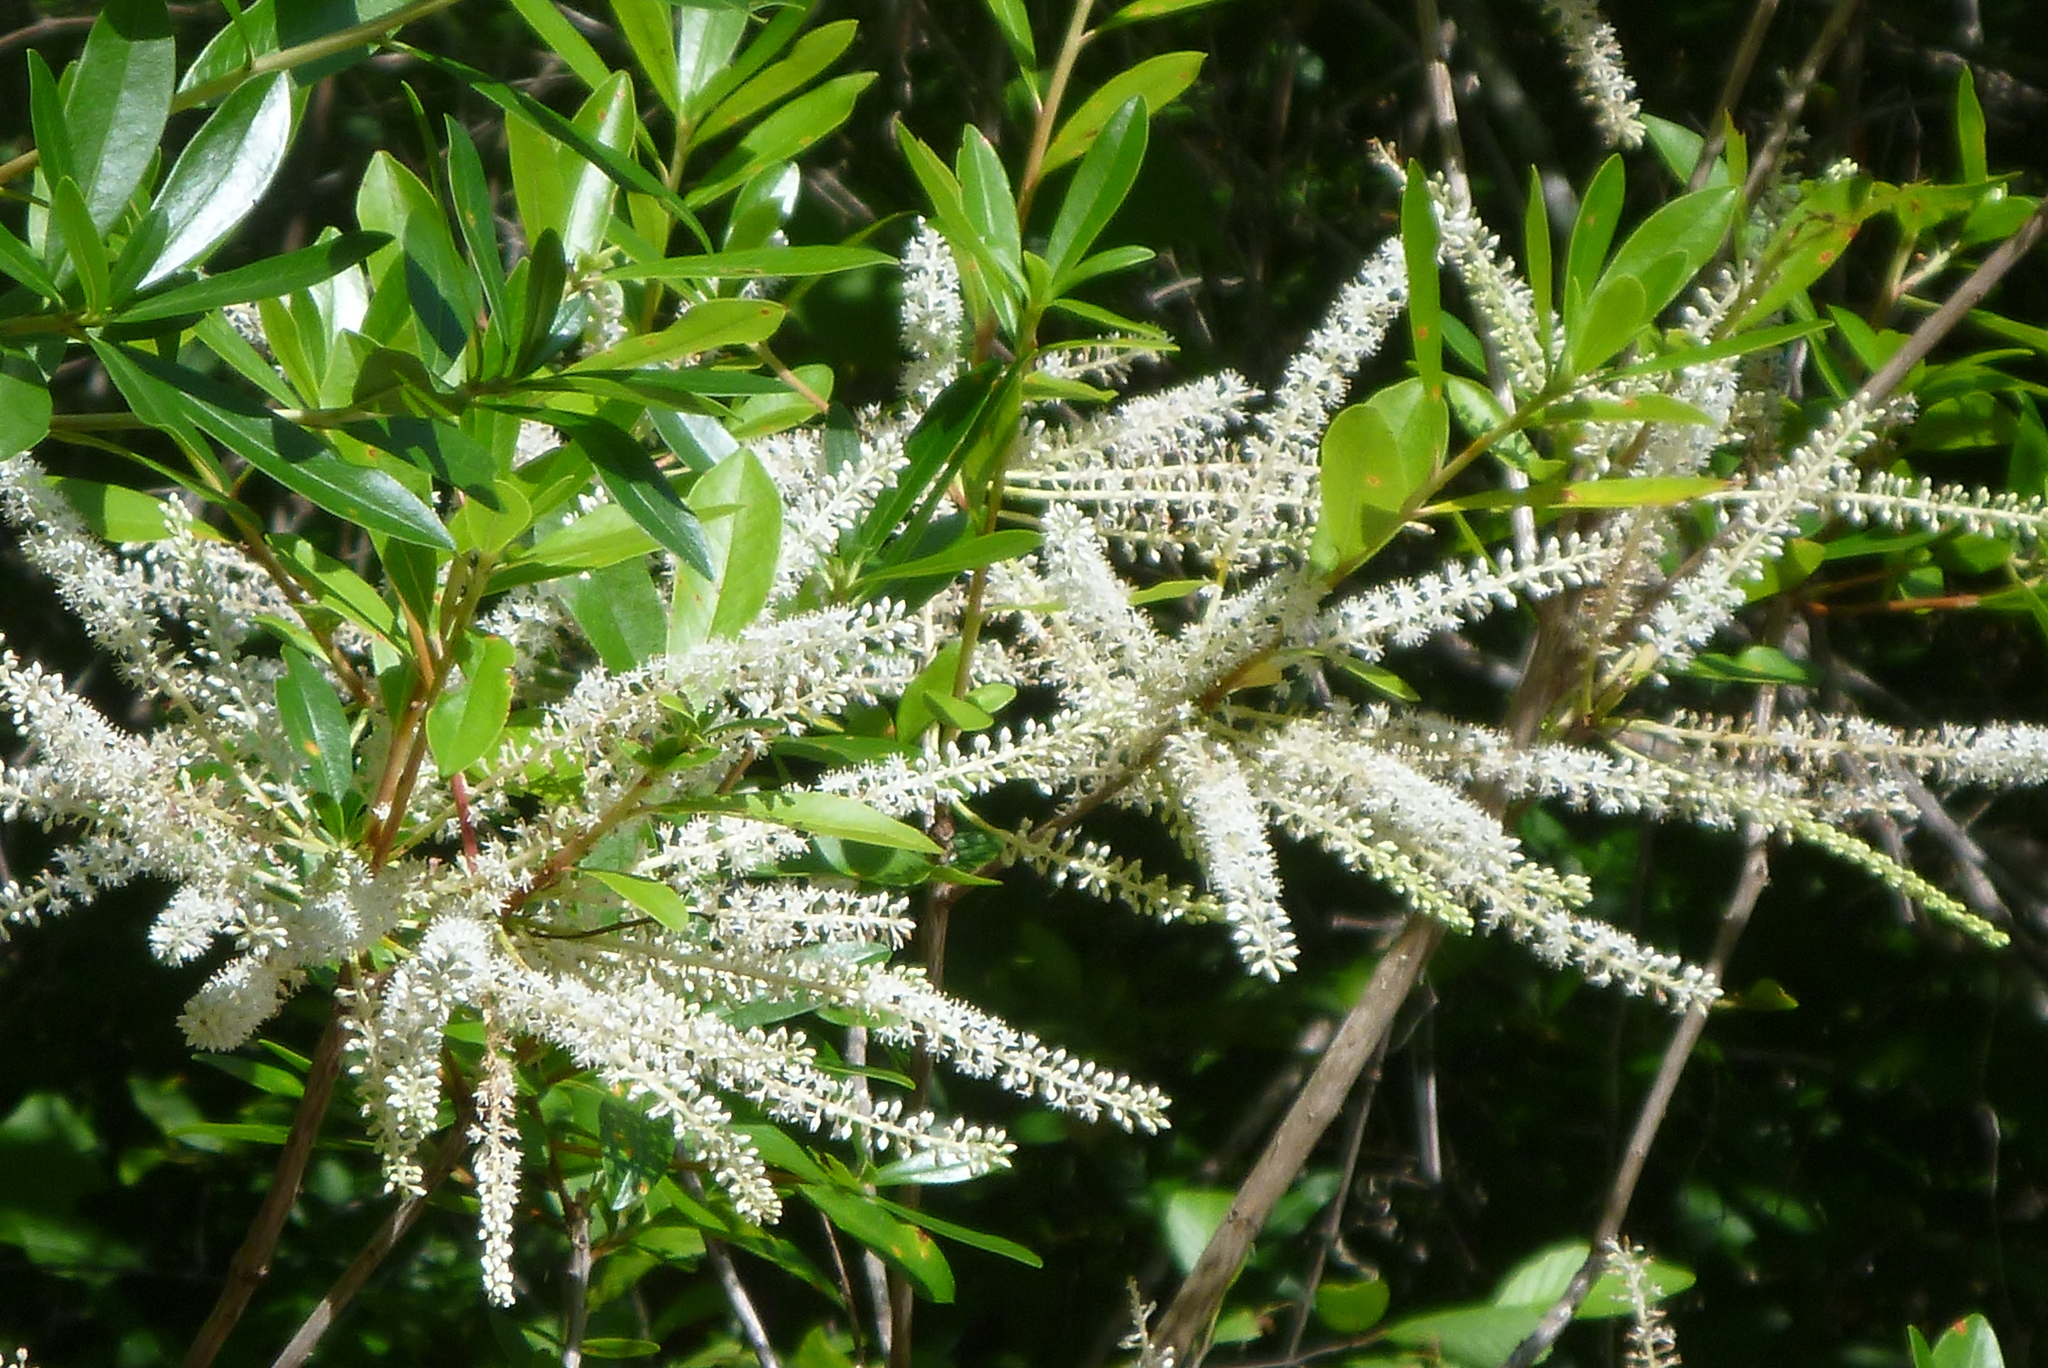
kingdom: Plantae
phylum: Tracheophyta
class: Magnoliopsida
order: Ericales
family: Cyrillaceae
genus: Cyrilla
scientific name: Cyrilla racemiflora
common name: Black titi
